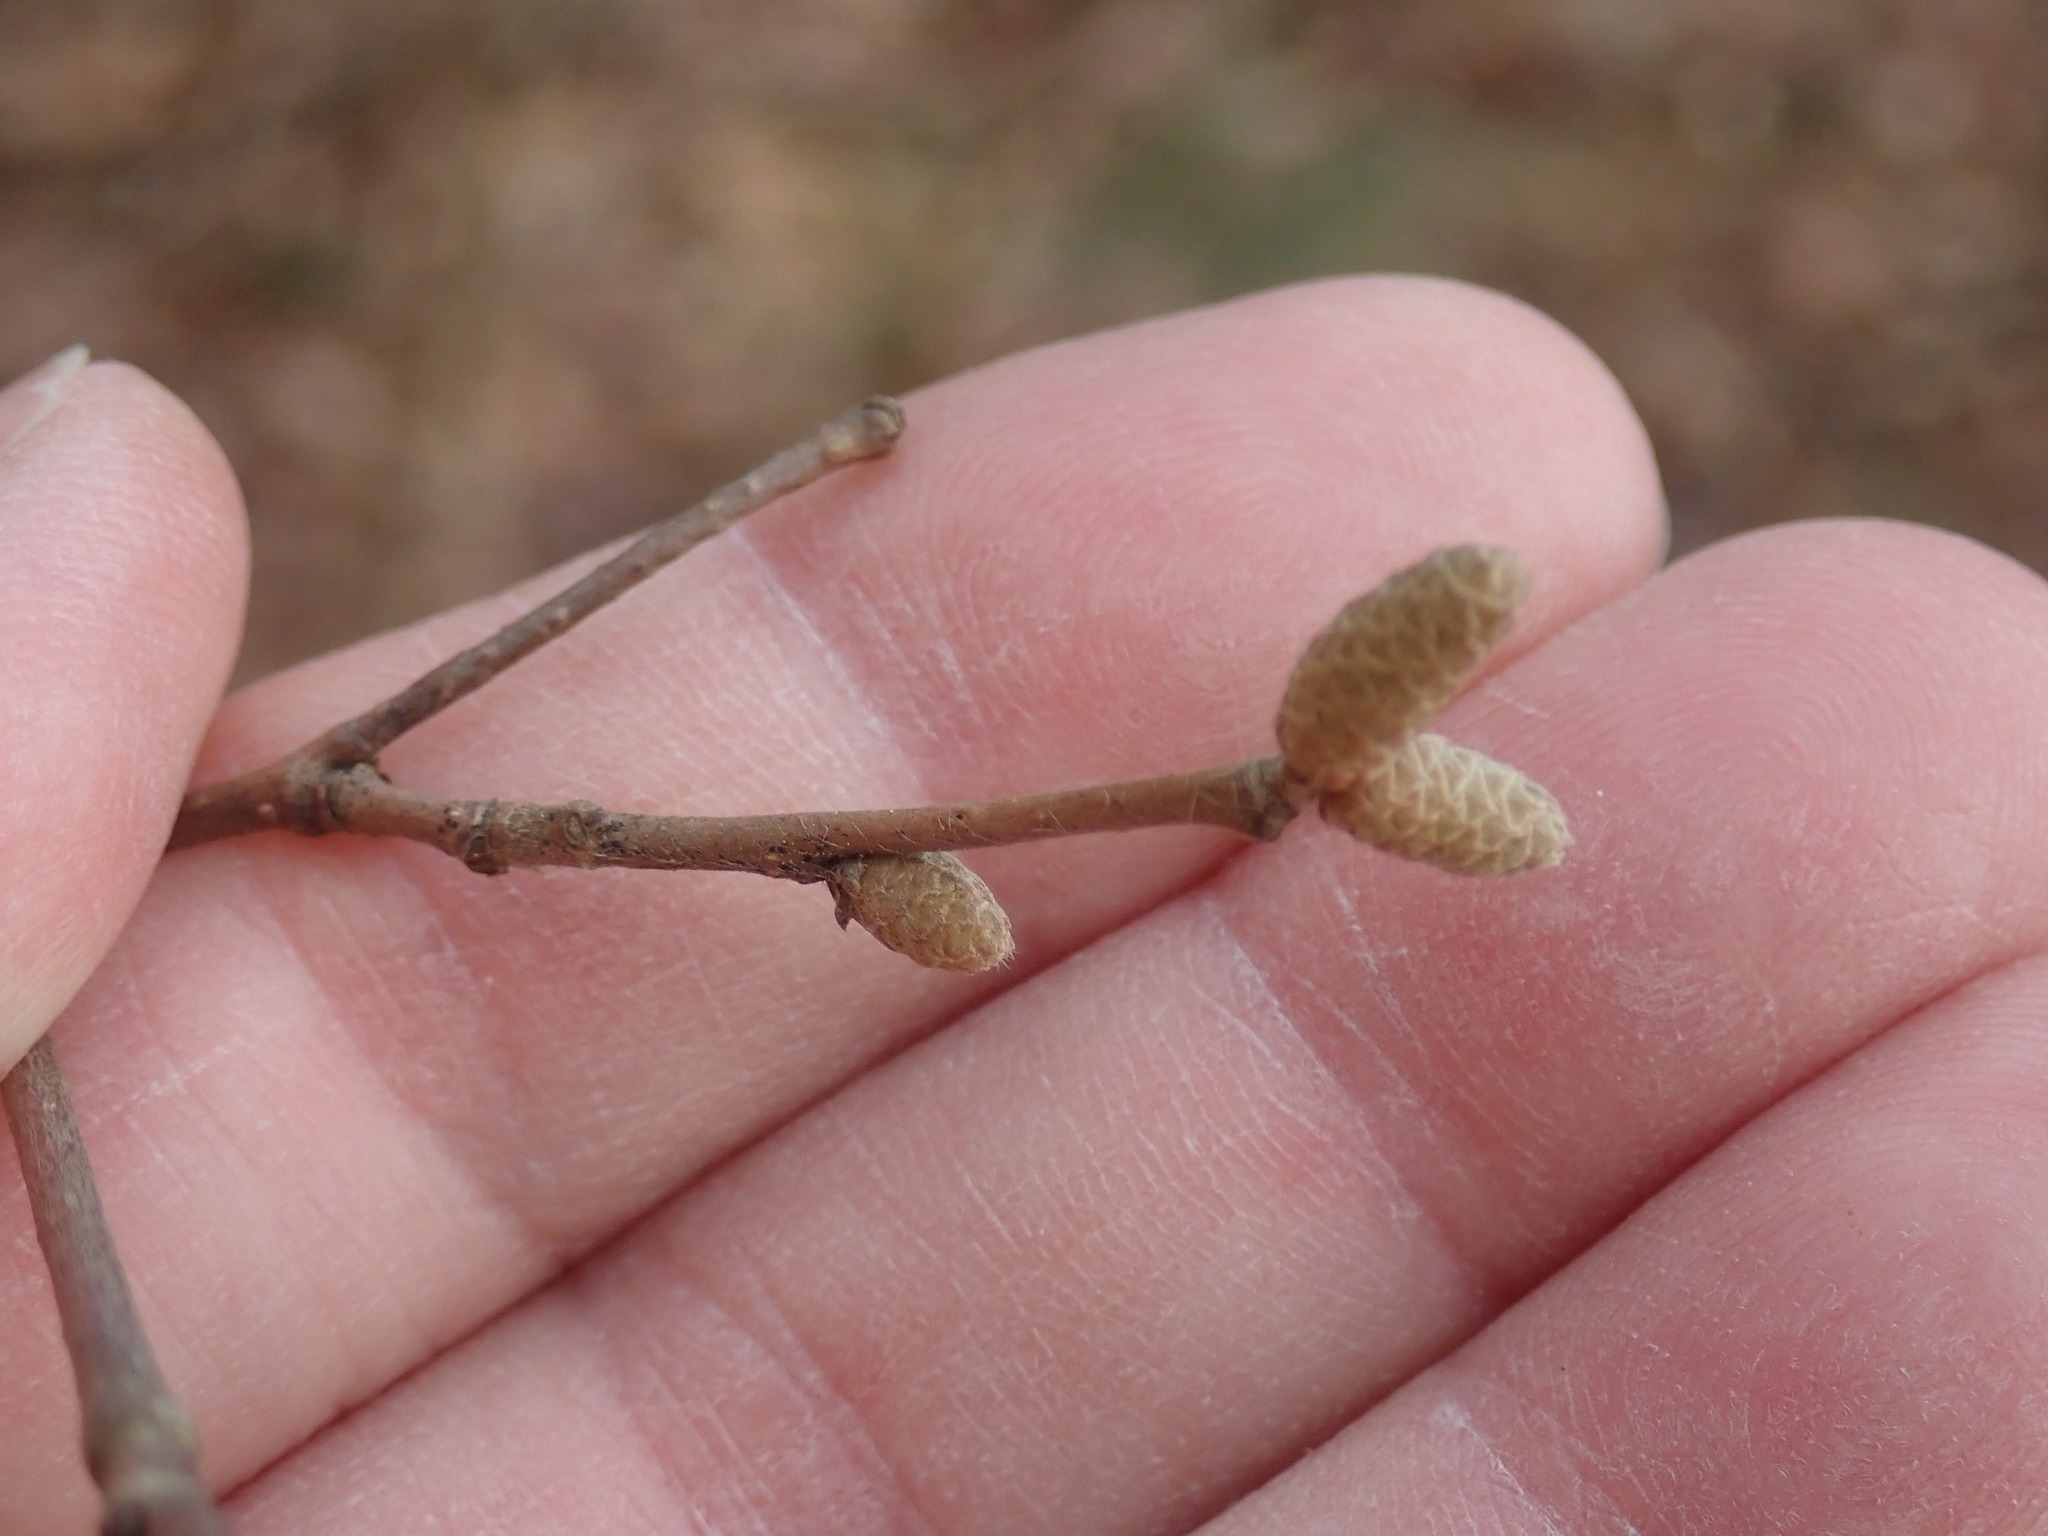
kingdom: Plantae
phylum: Tracheophyta
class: Magnoliopsida
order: Fagales
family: Betulaceae
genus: Corylus
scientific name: Corylus cornuta
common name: Beaked hazel
